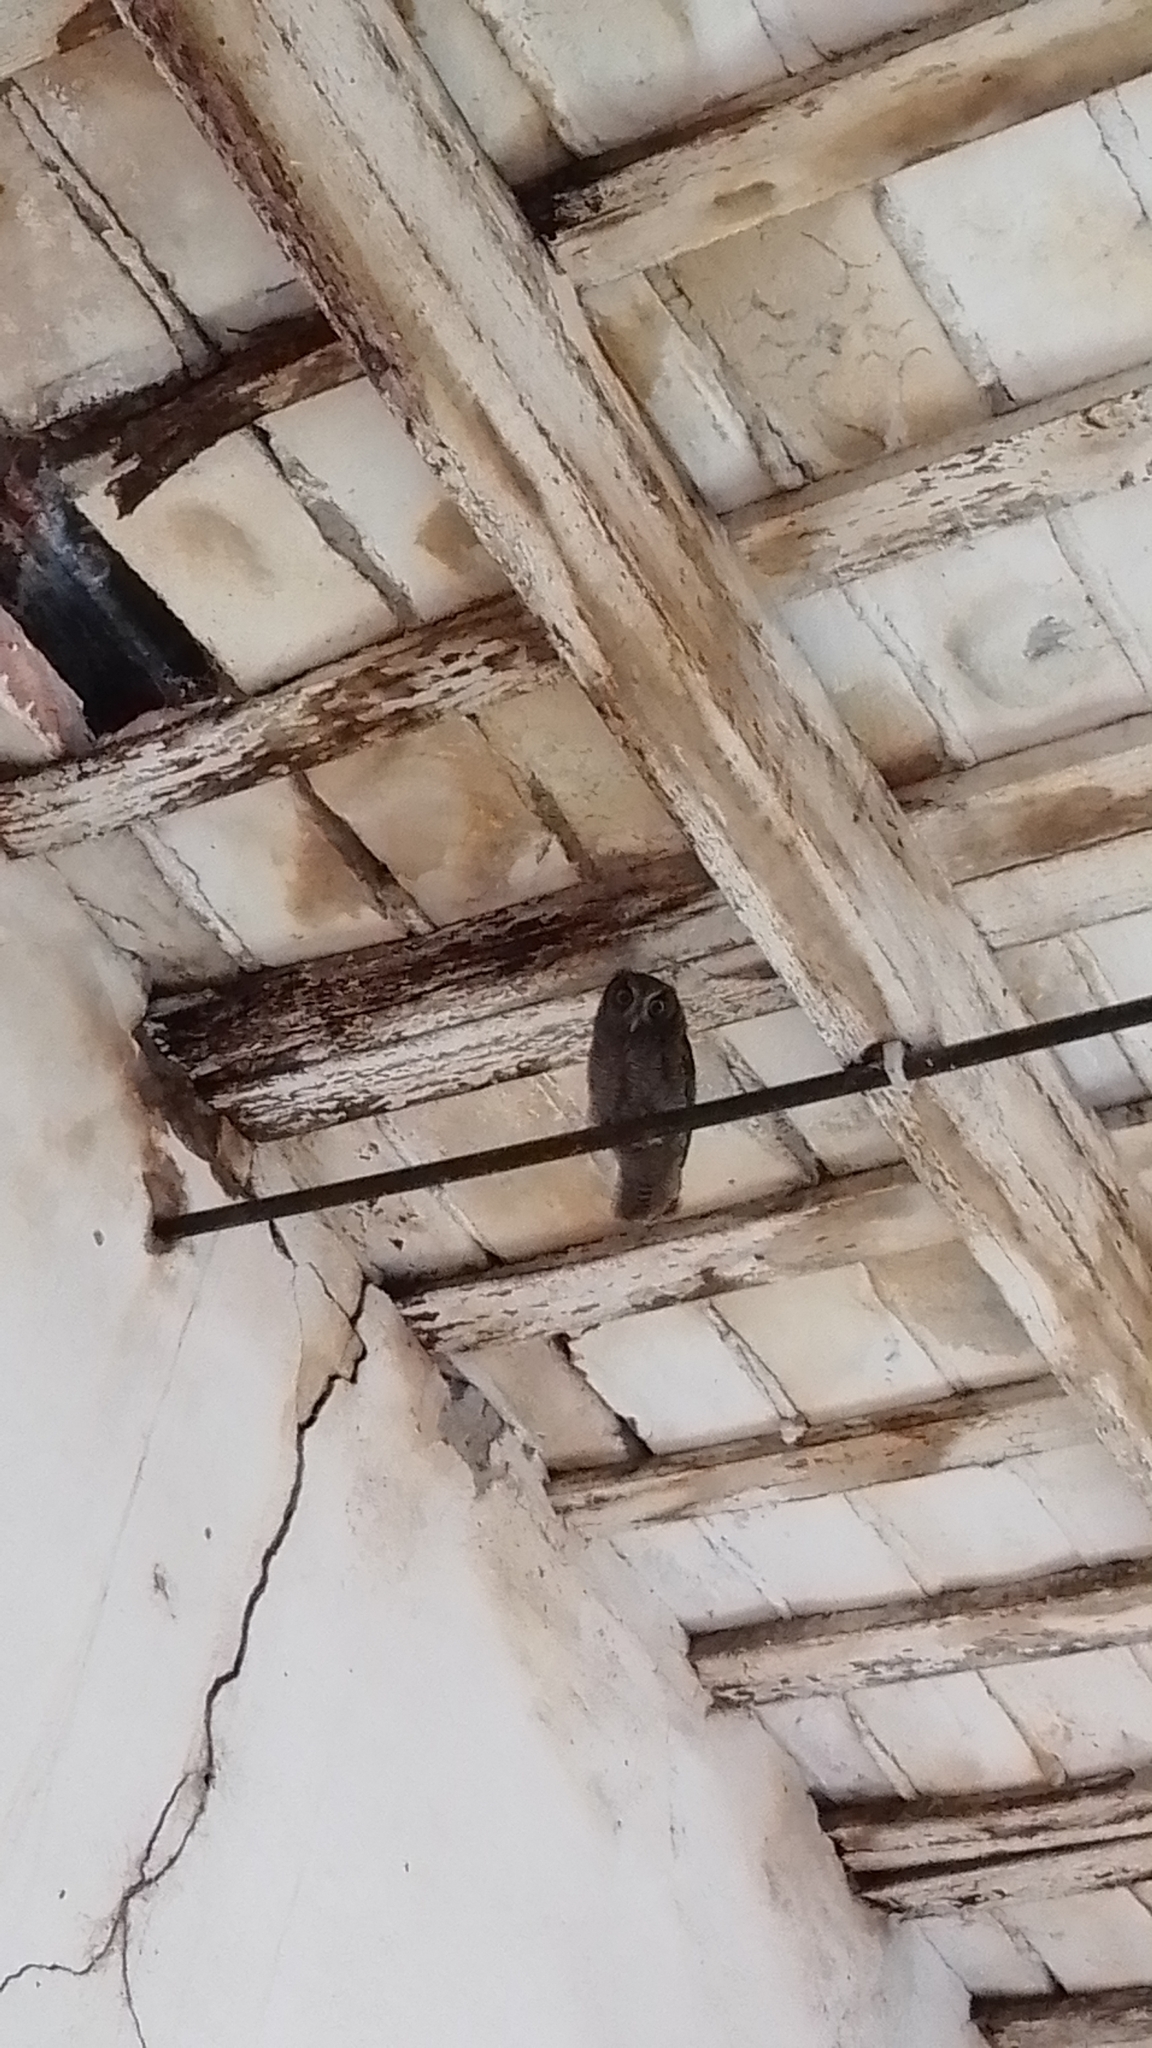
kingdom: Animalia
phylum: Chordata
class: Aves
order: Strigiformes
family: Strigidae
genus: Megascops
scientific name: Megascops choliba
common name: Tropical screech-owl
